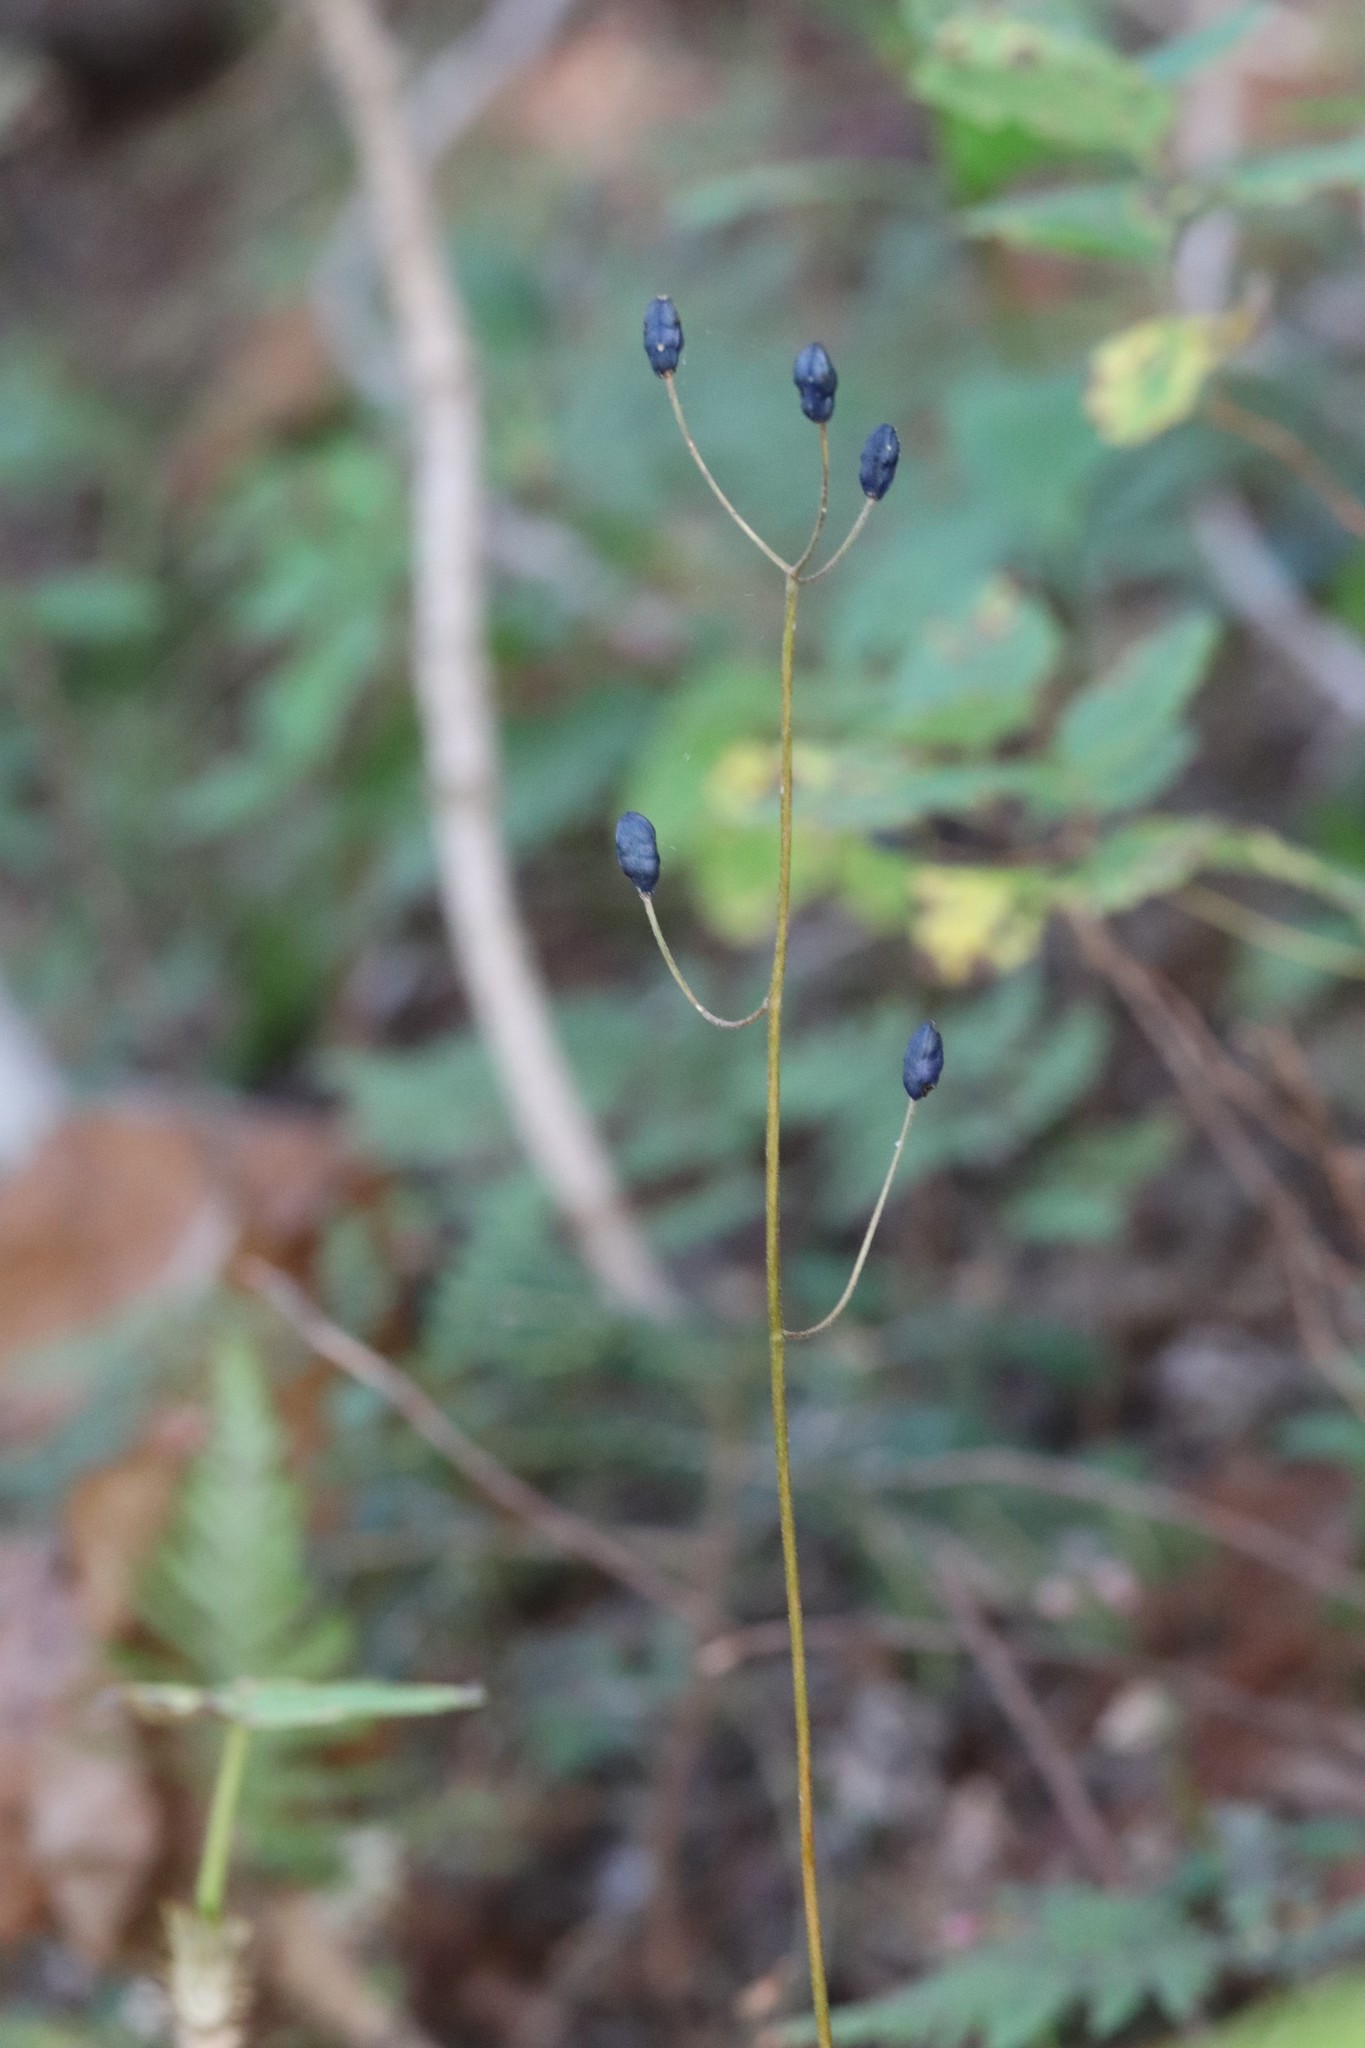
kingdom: Plantae
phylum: Tracheophyta
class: Liliopsida
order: Liliales
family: Liliaceae
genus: Clintonia
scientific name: Clintonia udensis
